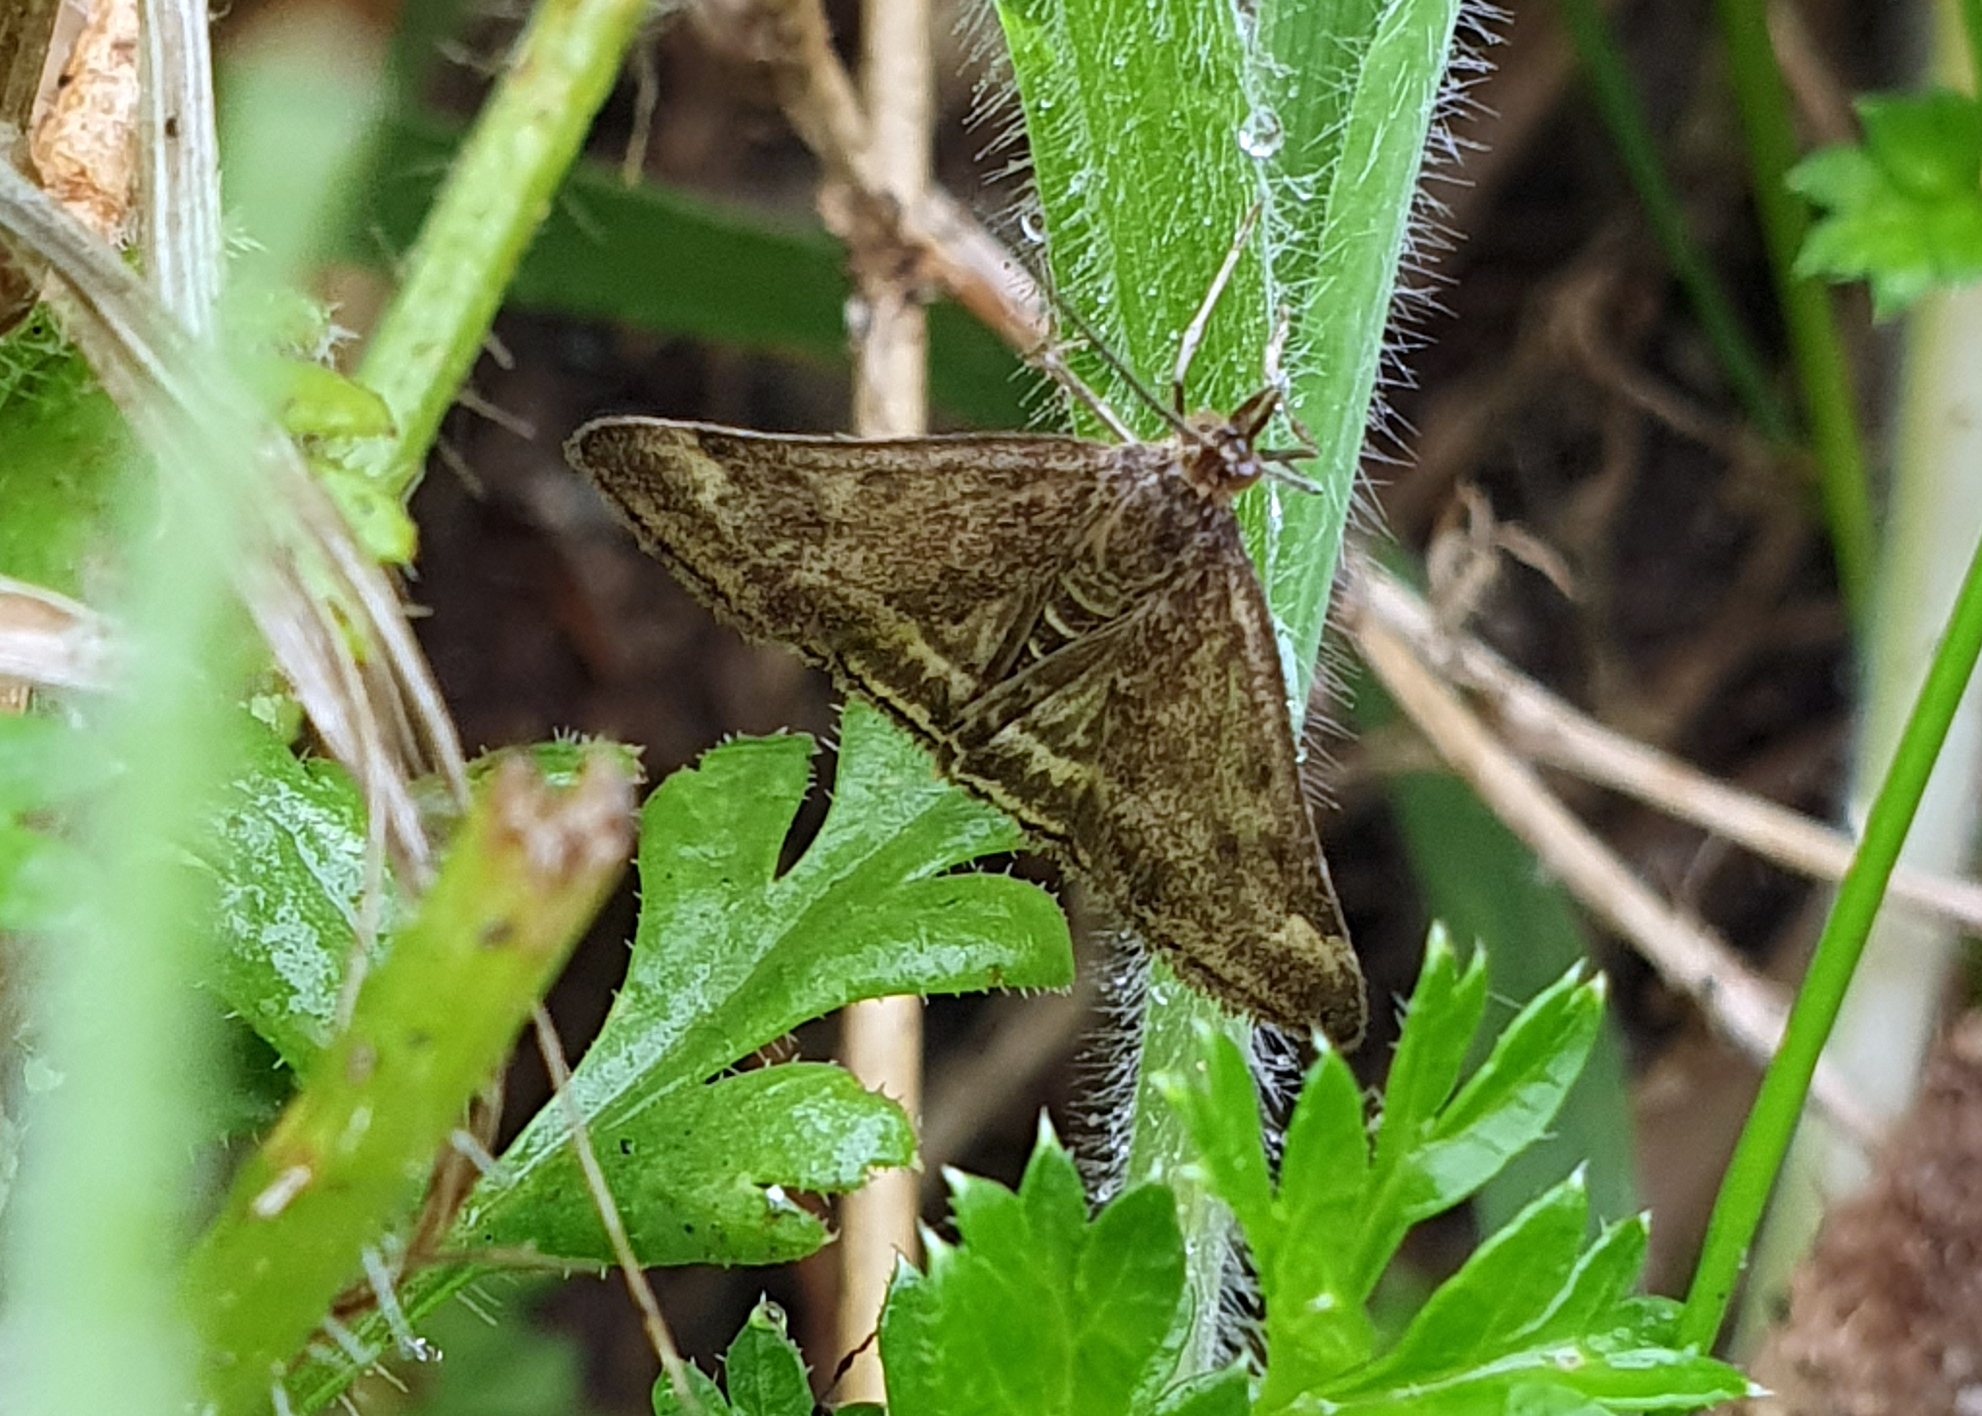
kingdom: Animalia
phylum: Arthropoda
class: Insecta
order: Lepidoptera
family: Crambidae
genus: Pyrausta
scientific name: Pyrausta despicata
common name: Straw-barred pearl
